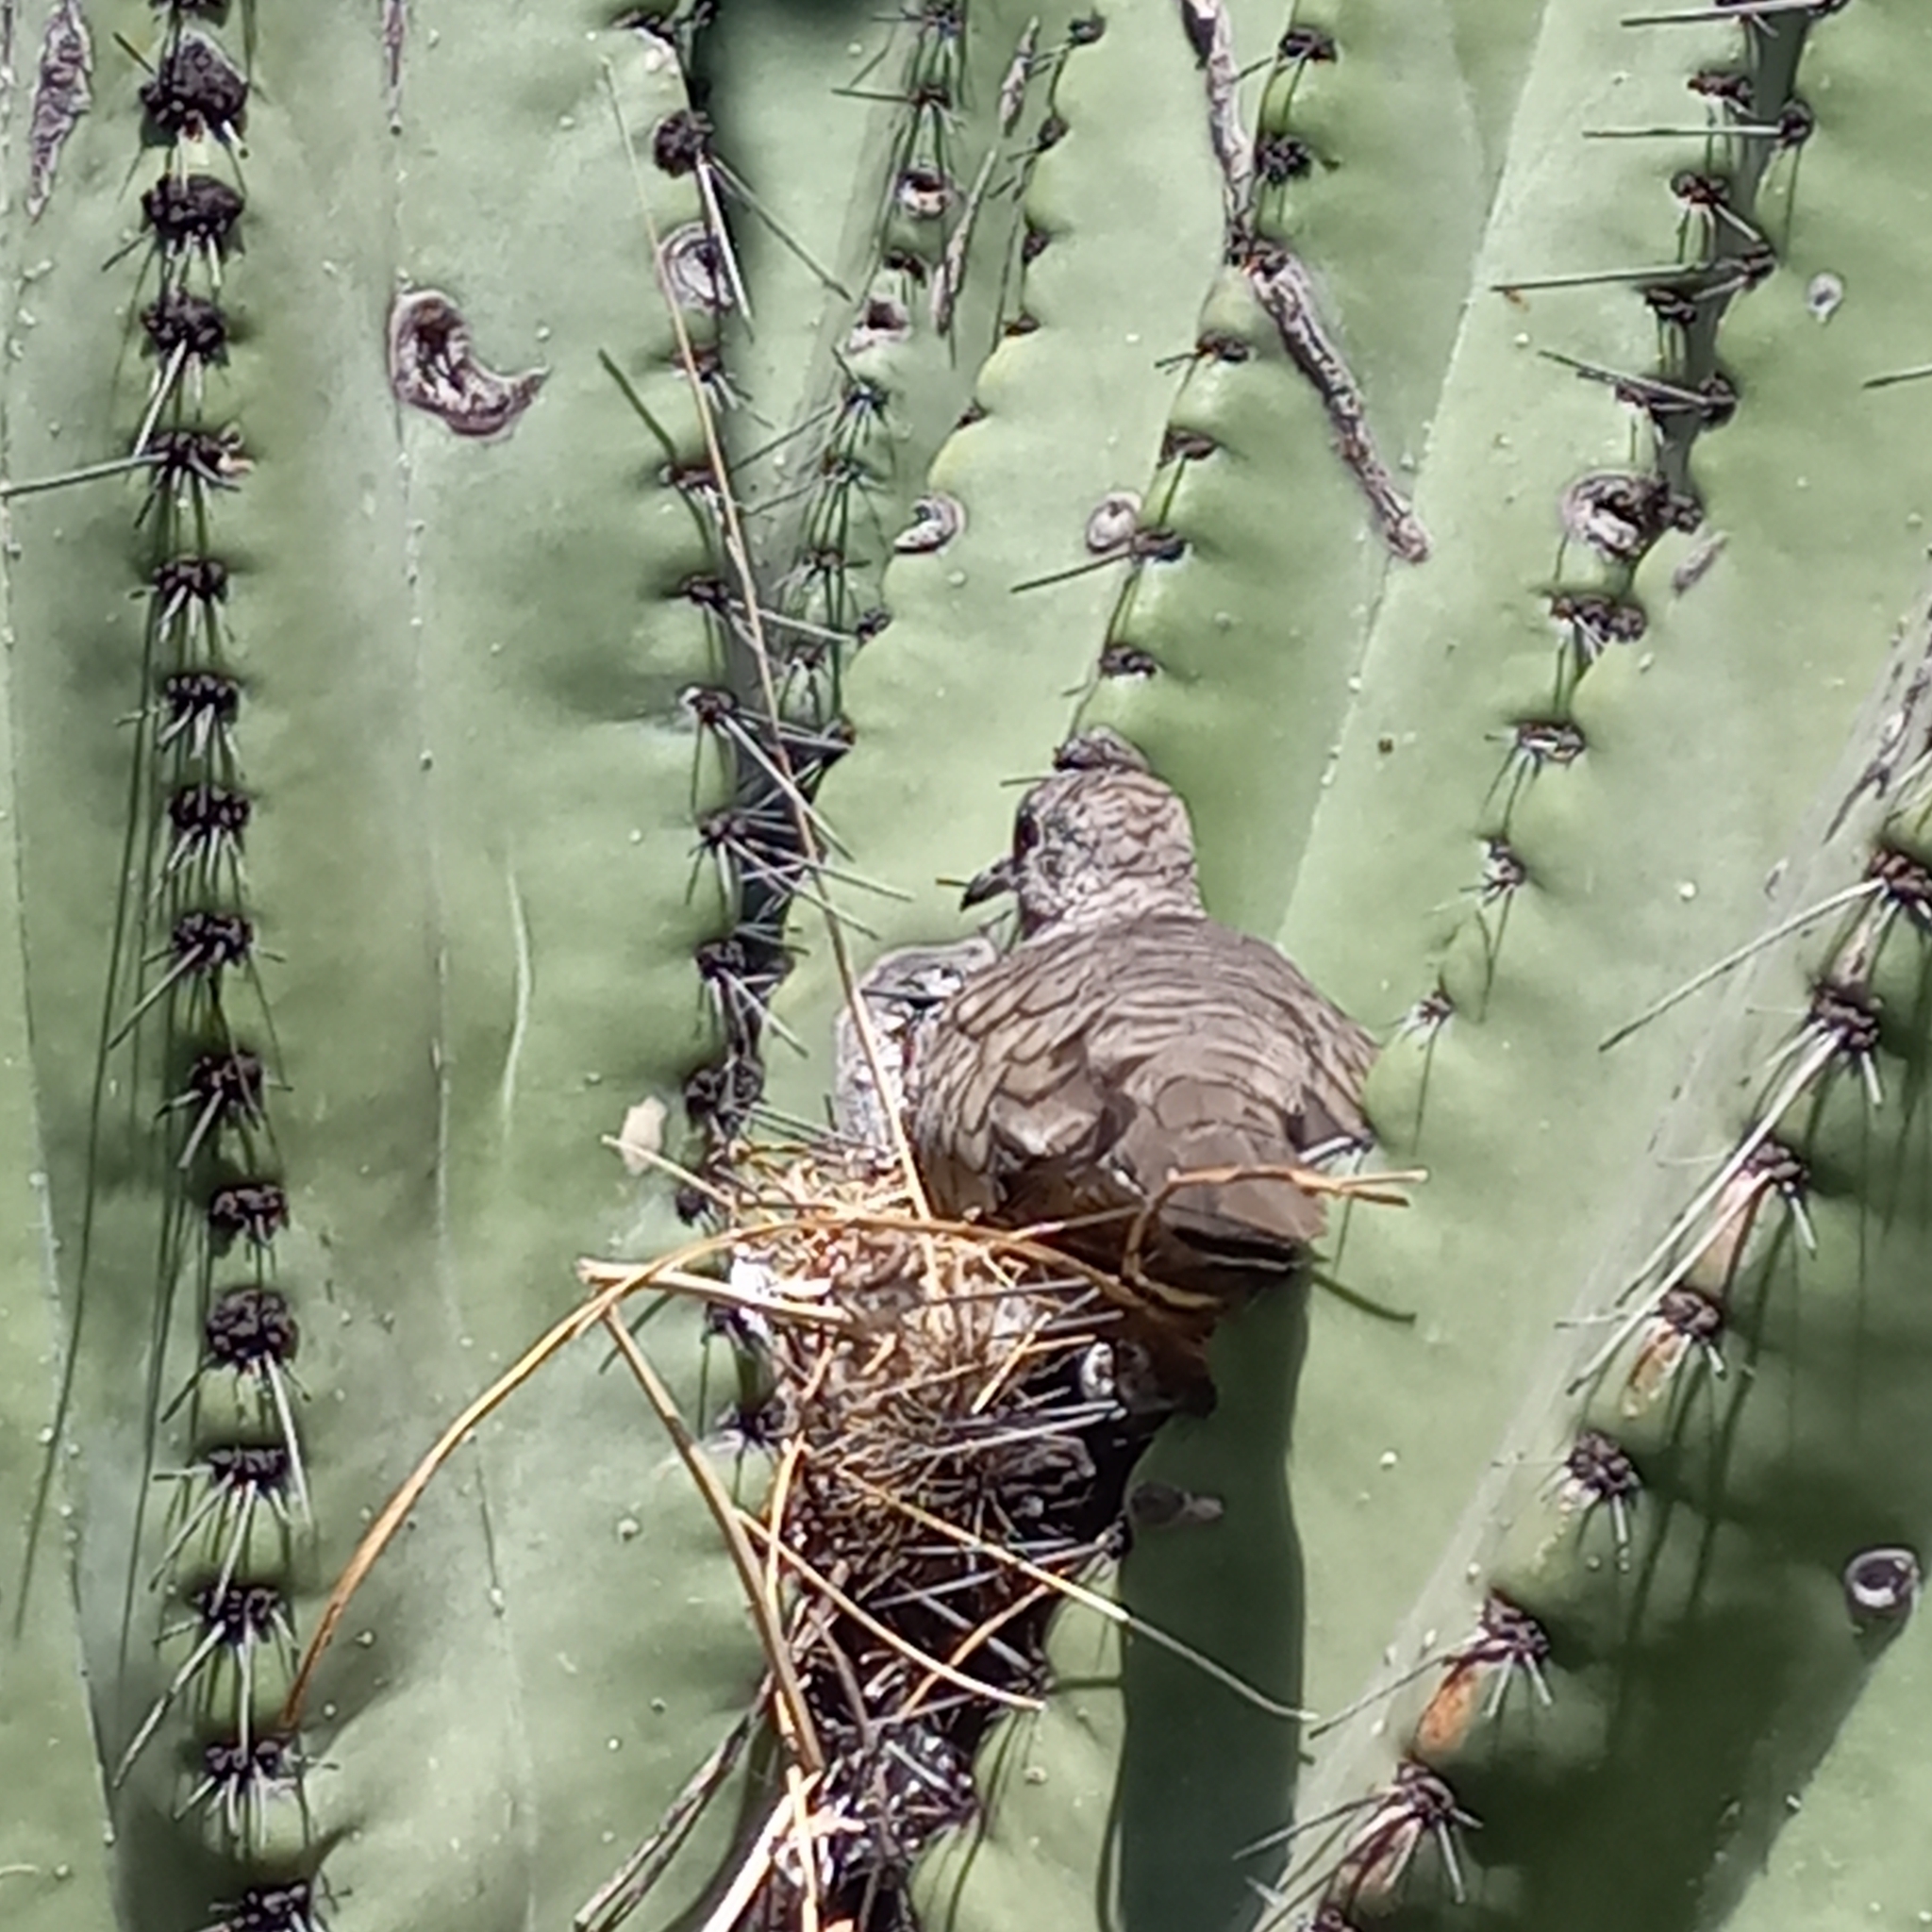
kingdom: Animalia
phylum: Chordata
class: Aves
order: Columbiformes
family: Columbidae
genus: Columbina
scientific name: Columbina inca
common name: Inca dove
